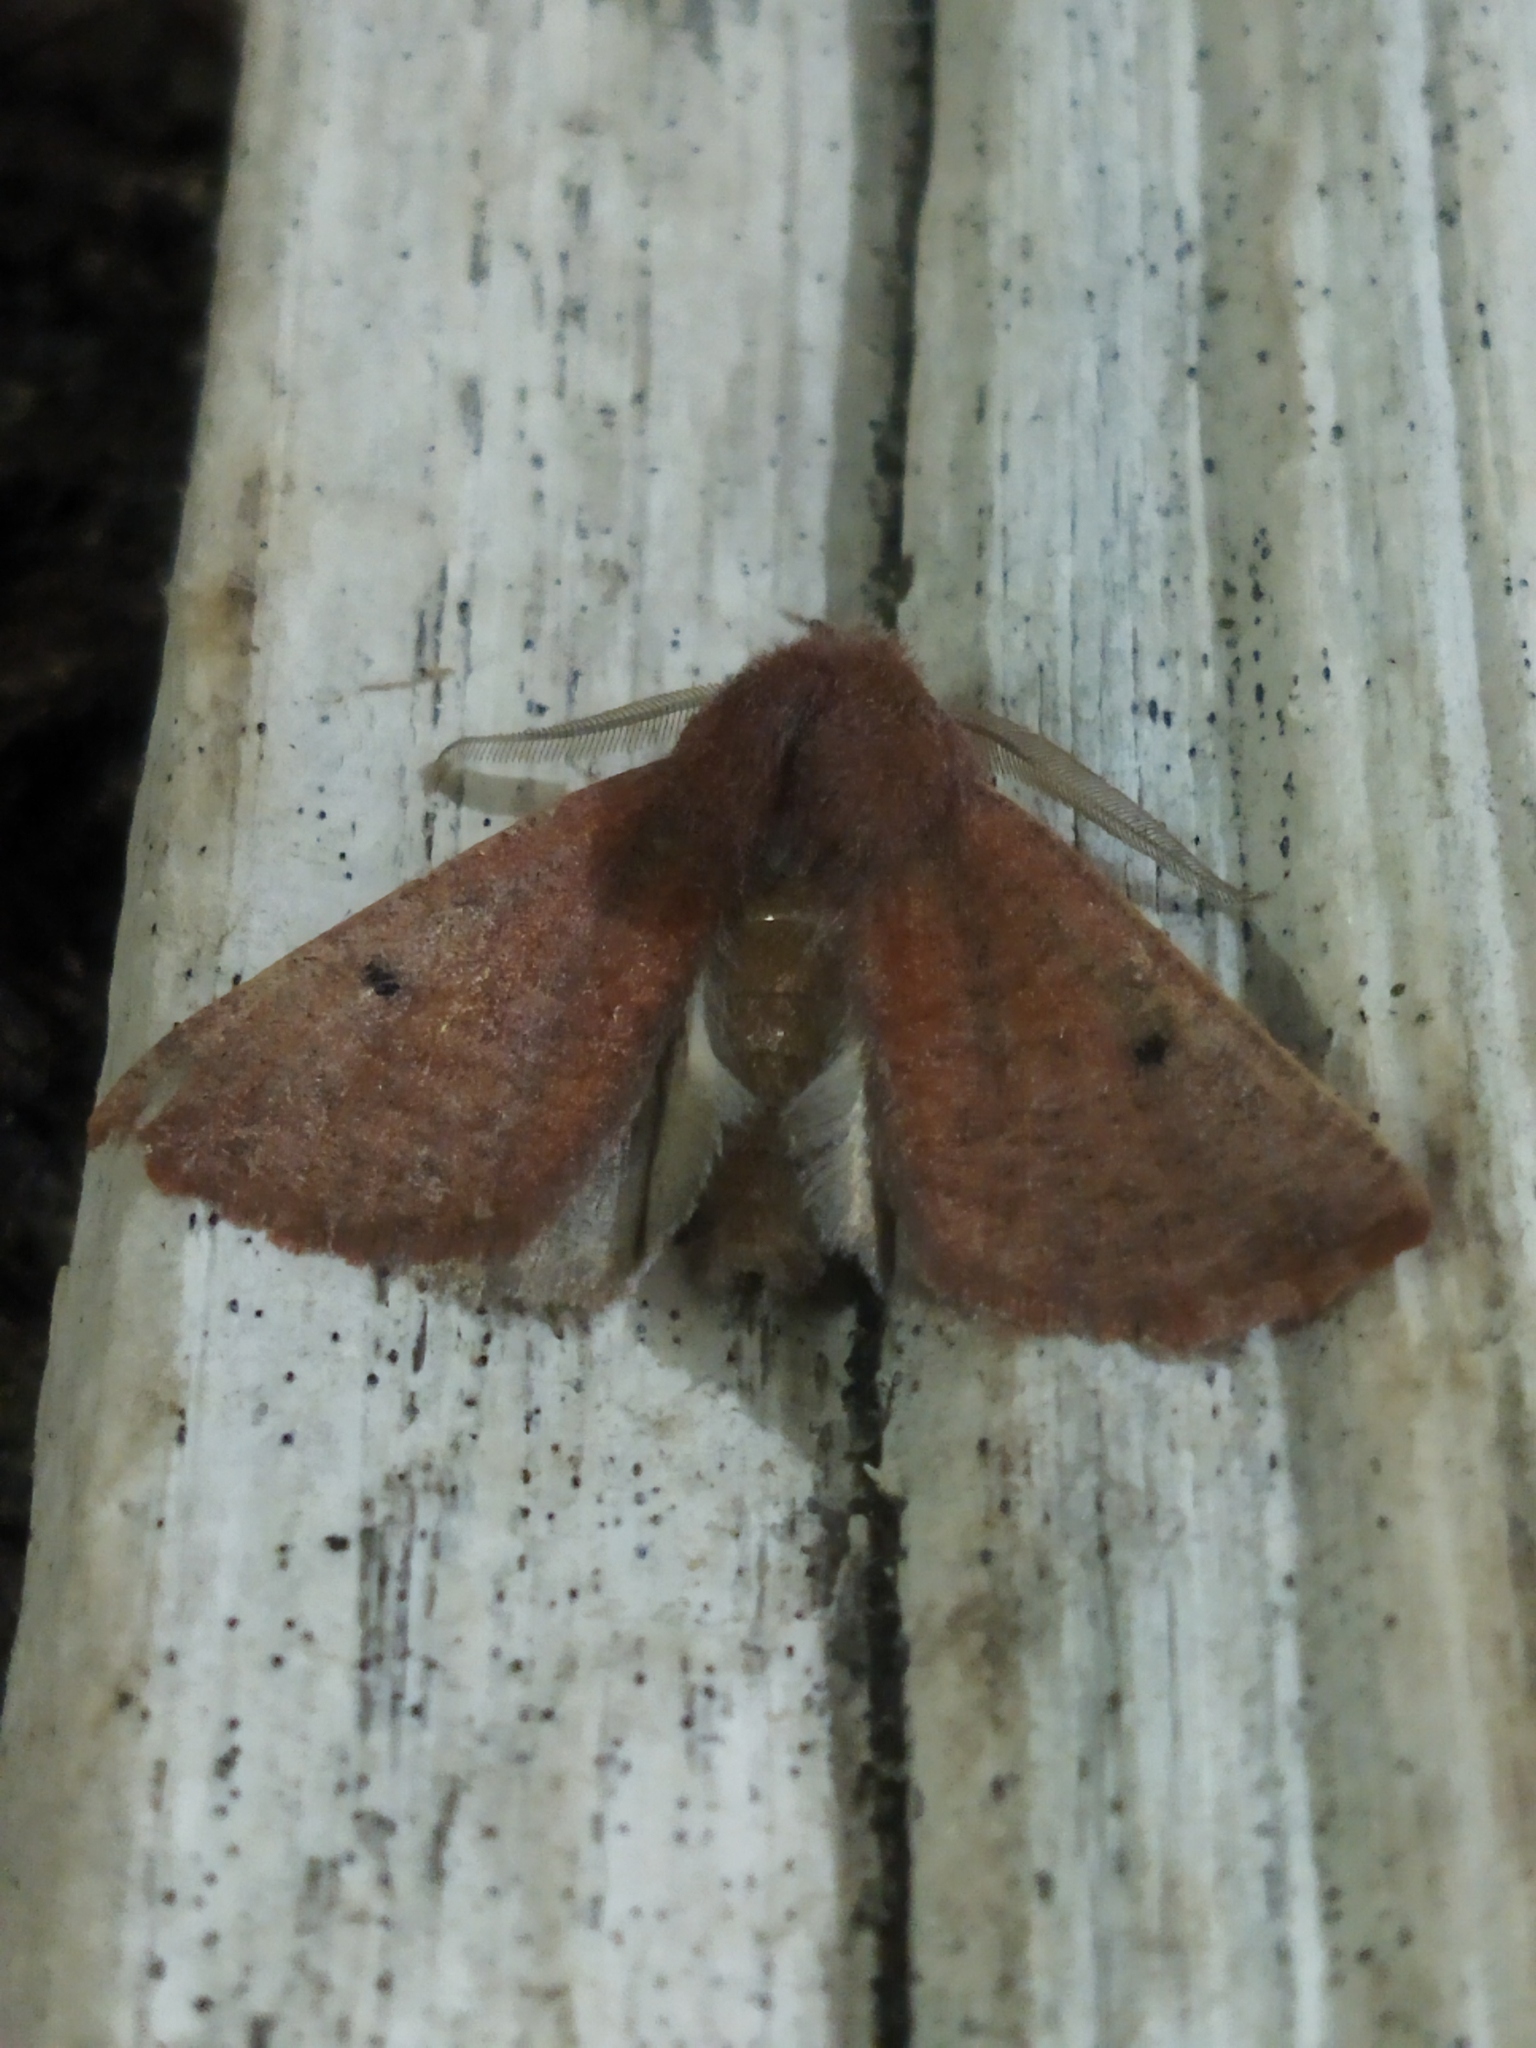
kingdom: Animalia
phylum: Arthropoda
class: Insecta
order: Lepidoptera
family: Geometridae
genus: Dasycorsa
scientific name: Dasycorsa modesta
